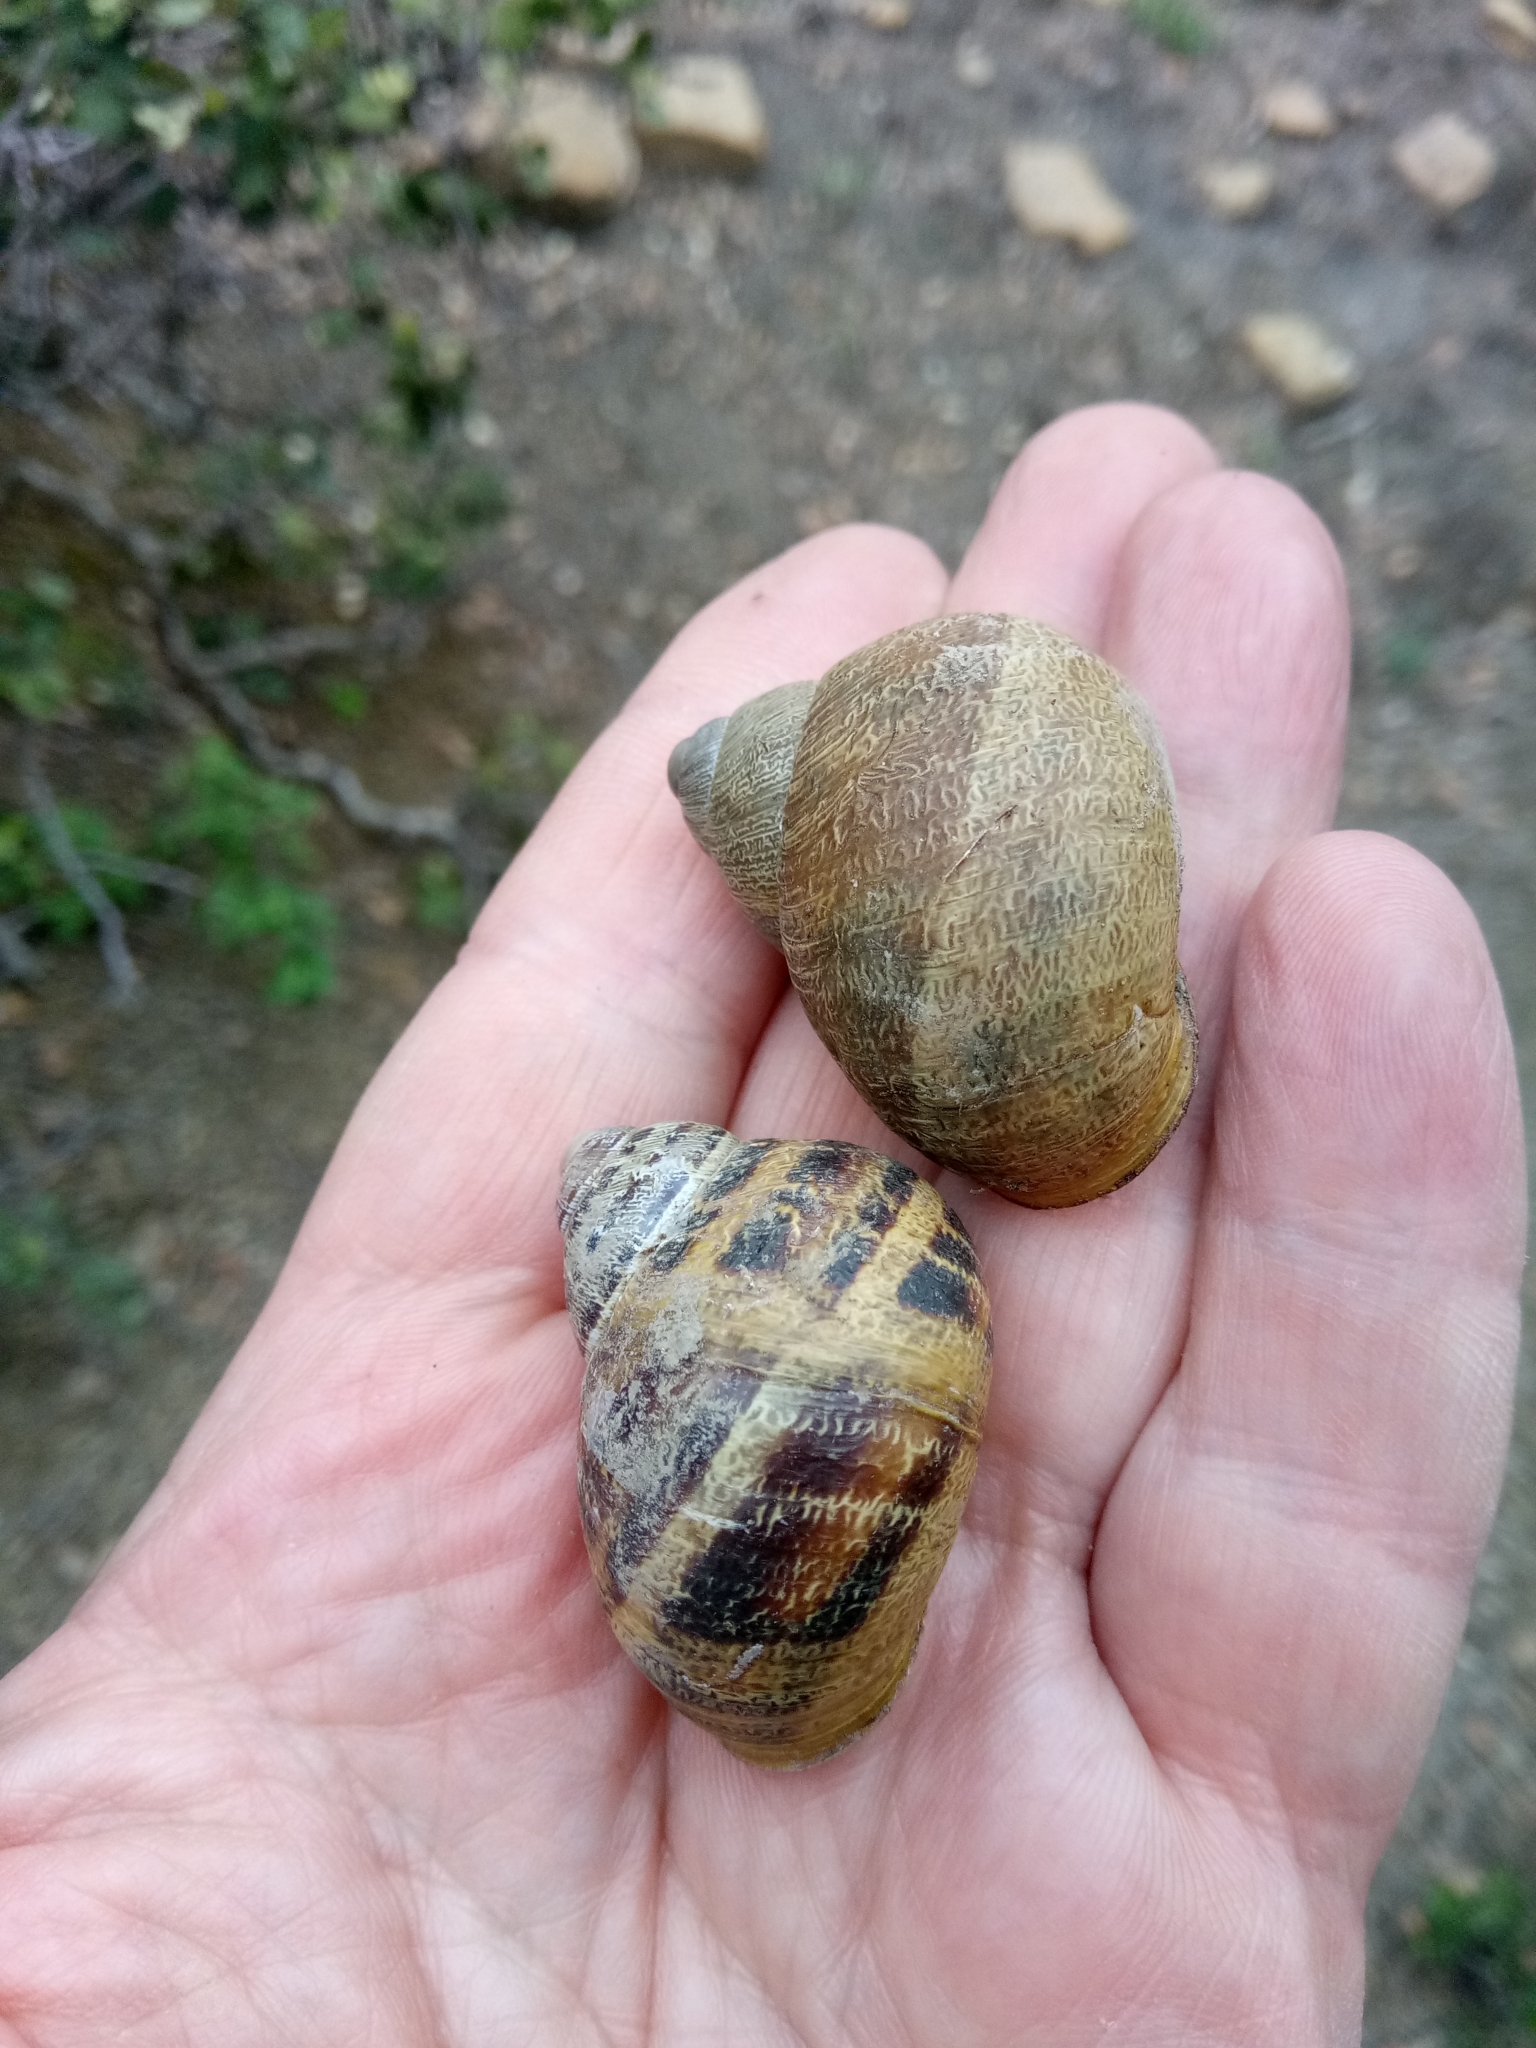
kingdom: Animalia
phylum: Mollusca
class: Gastropoda
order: Stylommatophora
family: Helicidae
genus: Cornu
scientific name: Cornu aspersum
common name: Brown garden snail
